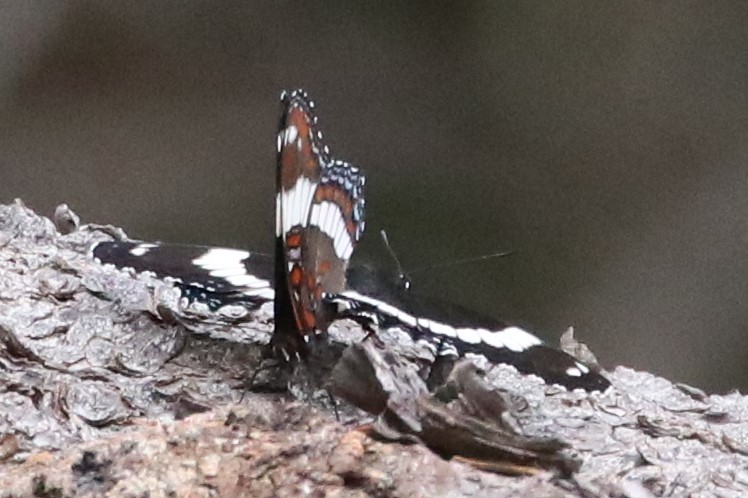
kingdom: Animalia
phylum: Arthropoda
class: Insecta
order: Lepidoptera
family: Nymphalidae
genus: Limenitis
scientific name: Limenitis arthemis
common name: Red-spotted admiral
